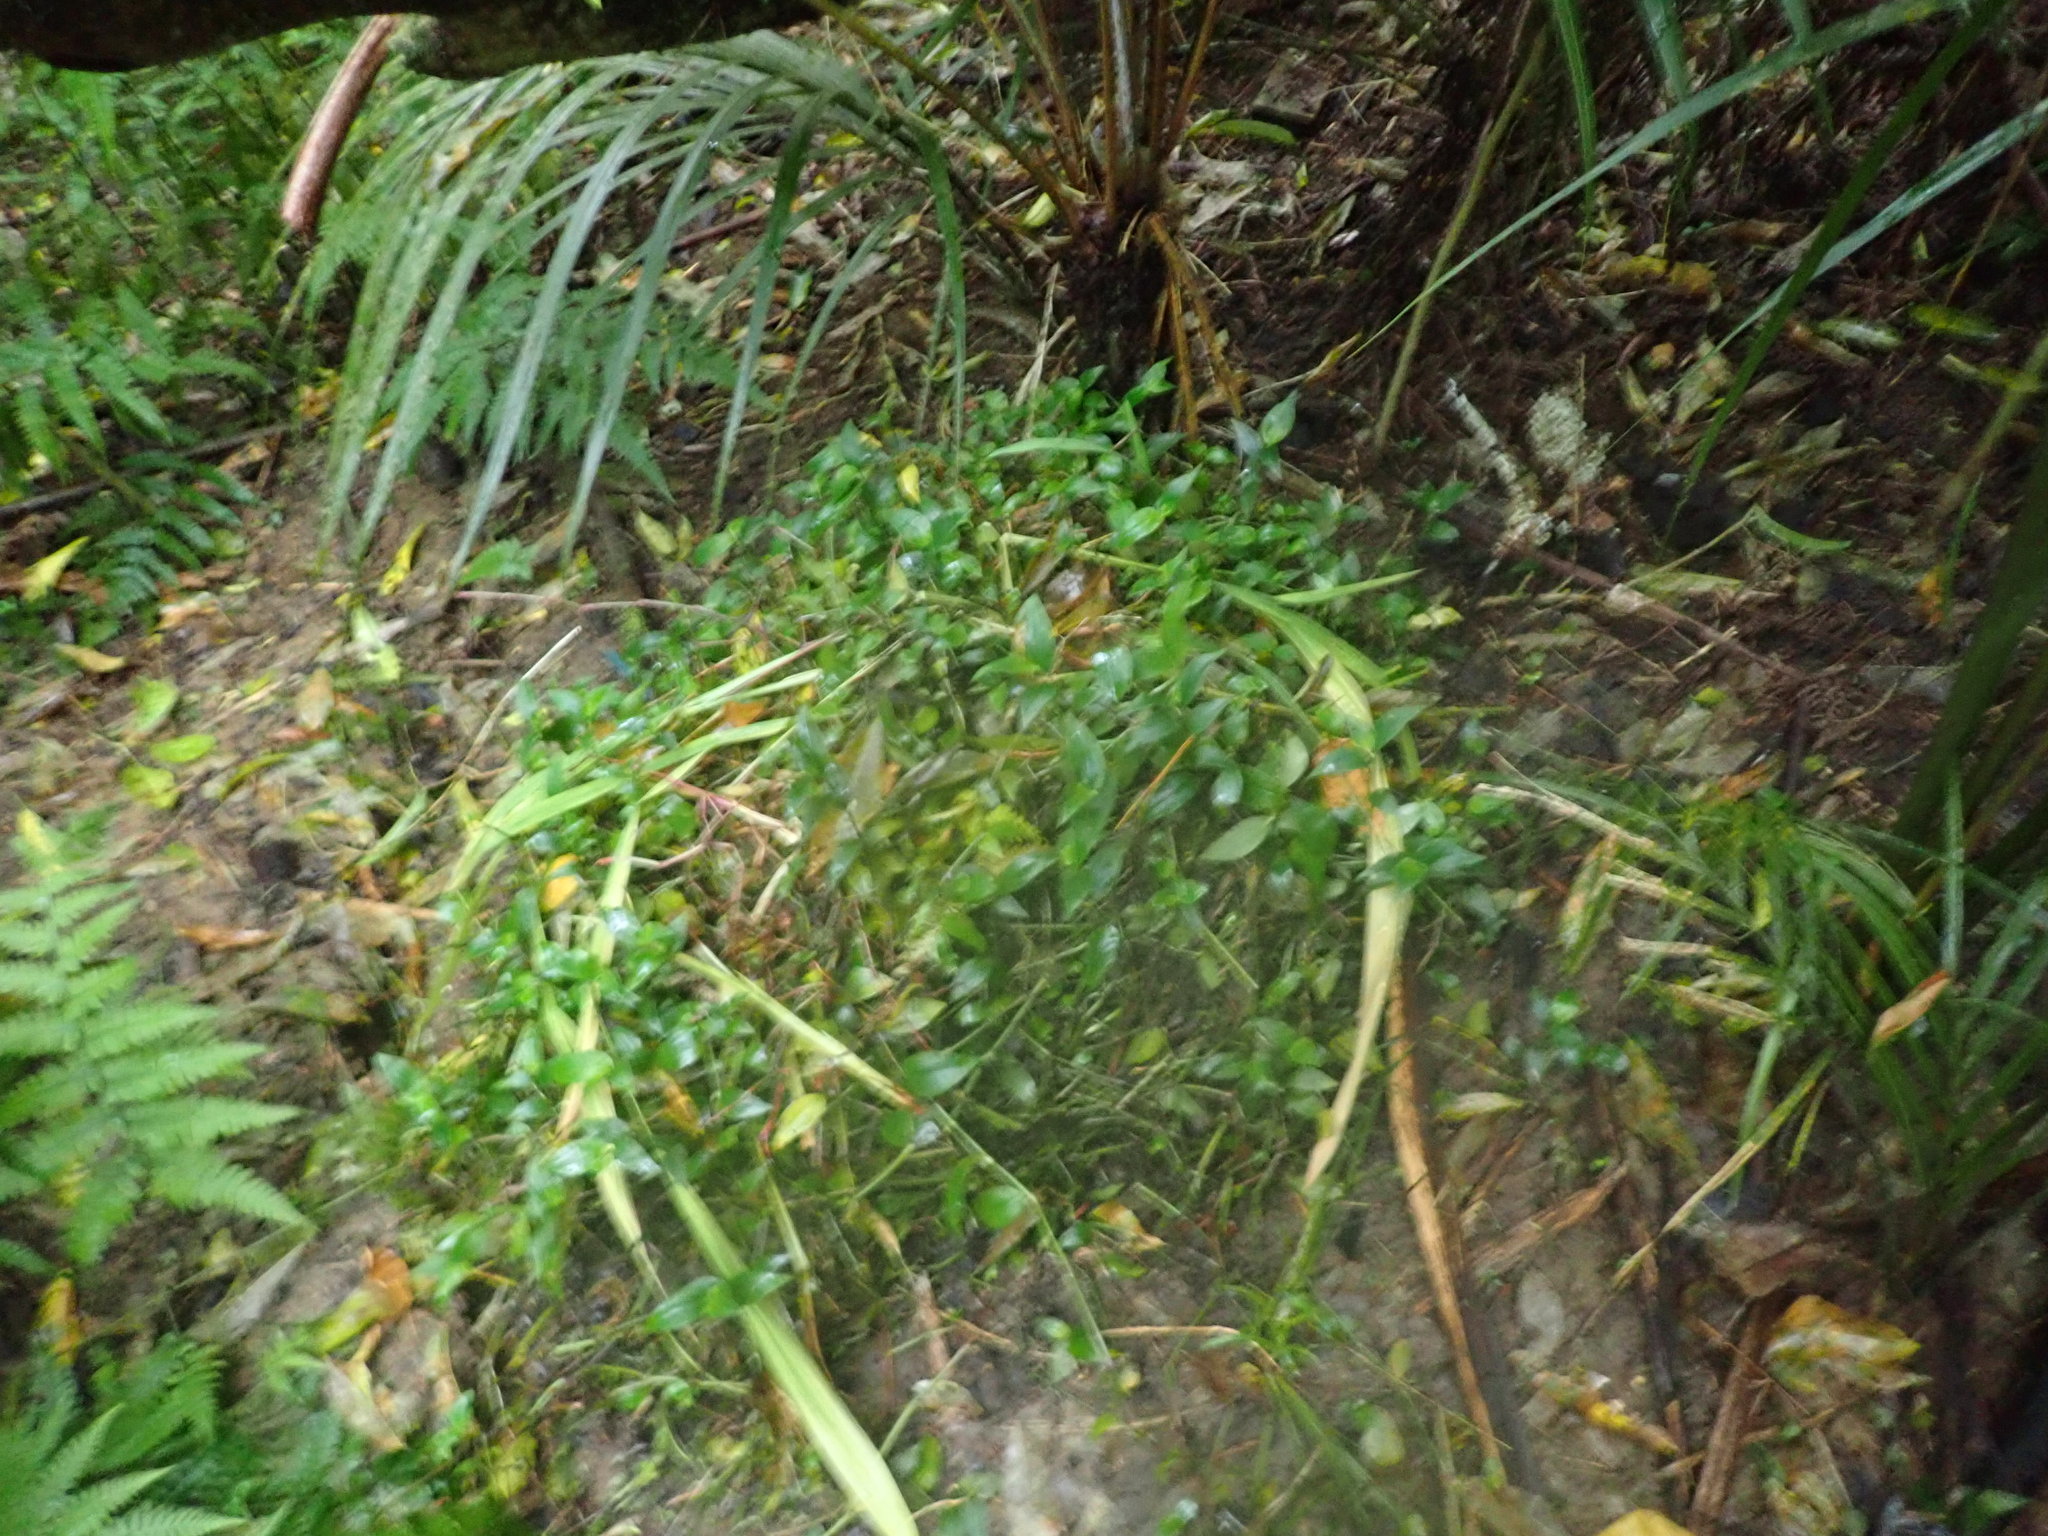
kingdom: Plantae
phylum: Tracheophyta
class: Liliopsida
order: Commelinales
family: Commelinaceae
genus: Tradescantia
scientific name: Tradescantia fluminensis
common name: Wandering-jew
